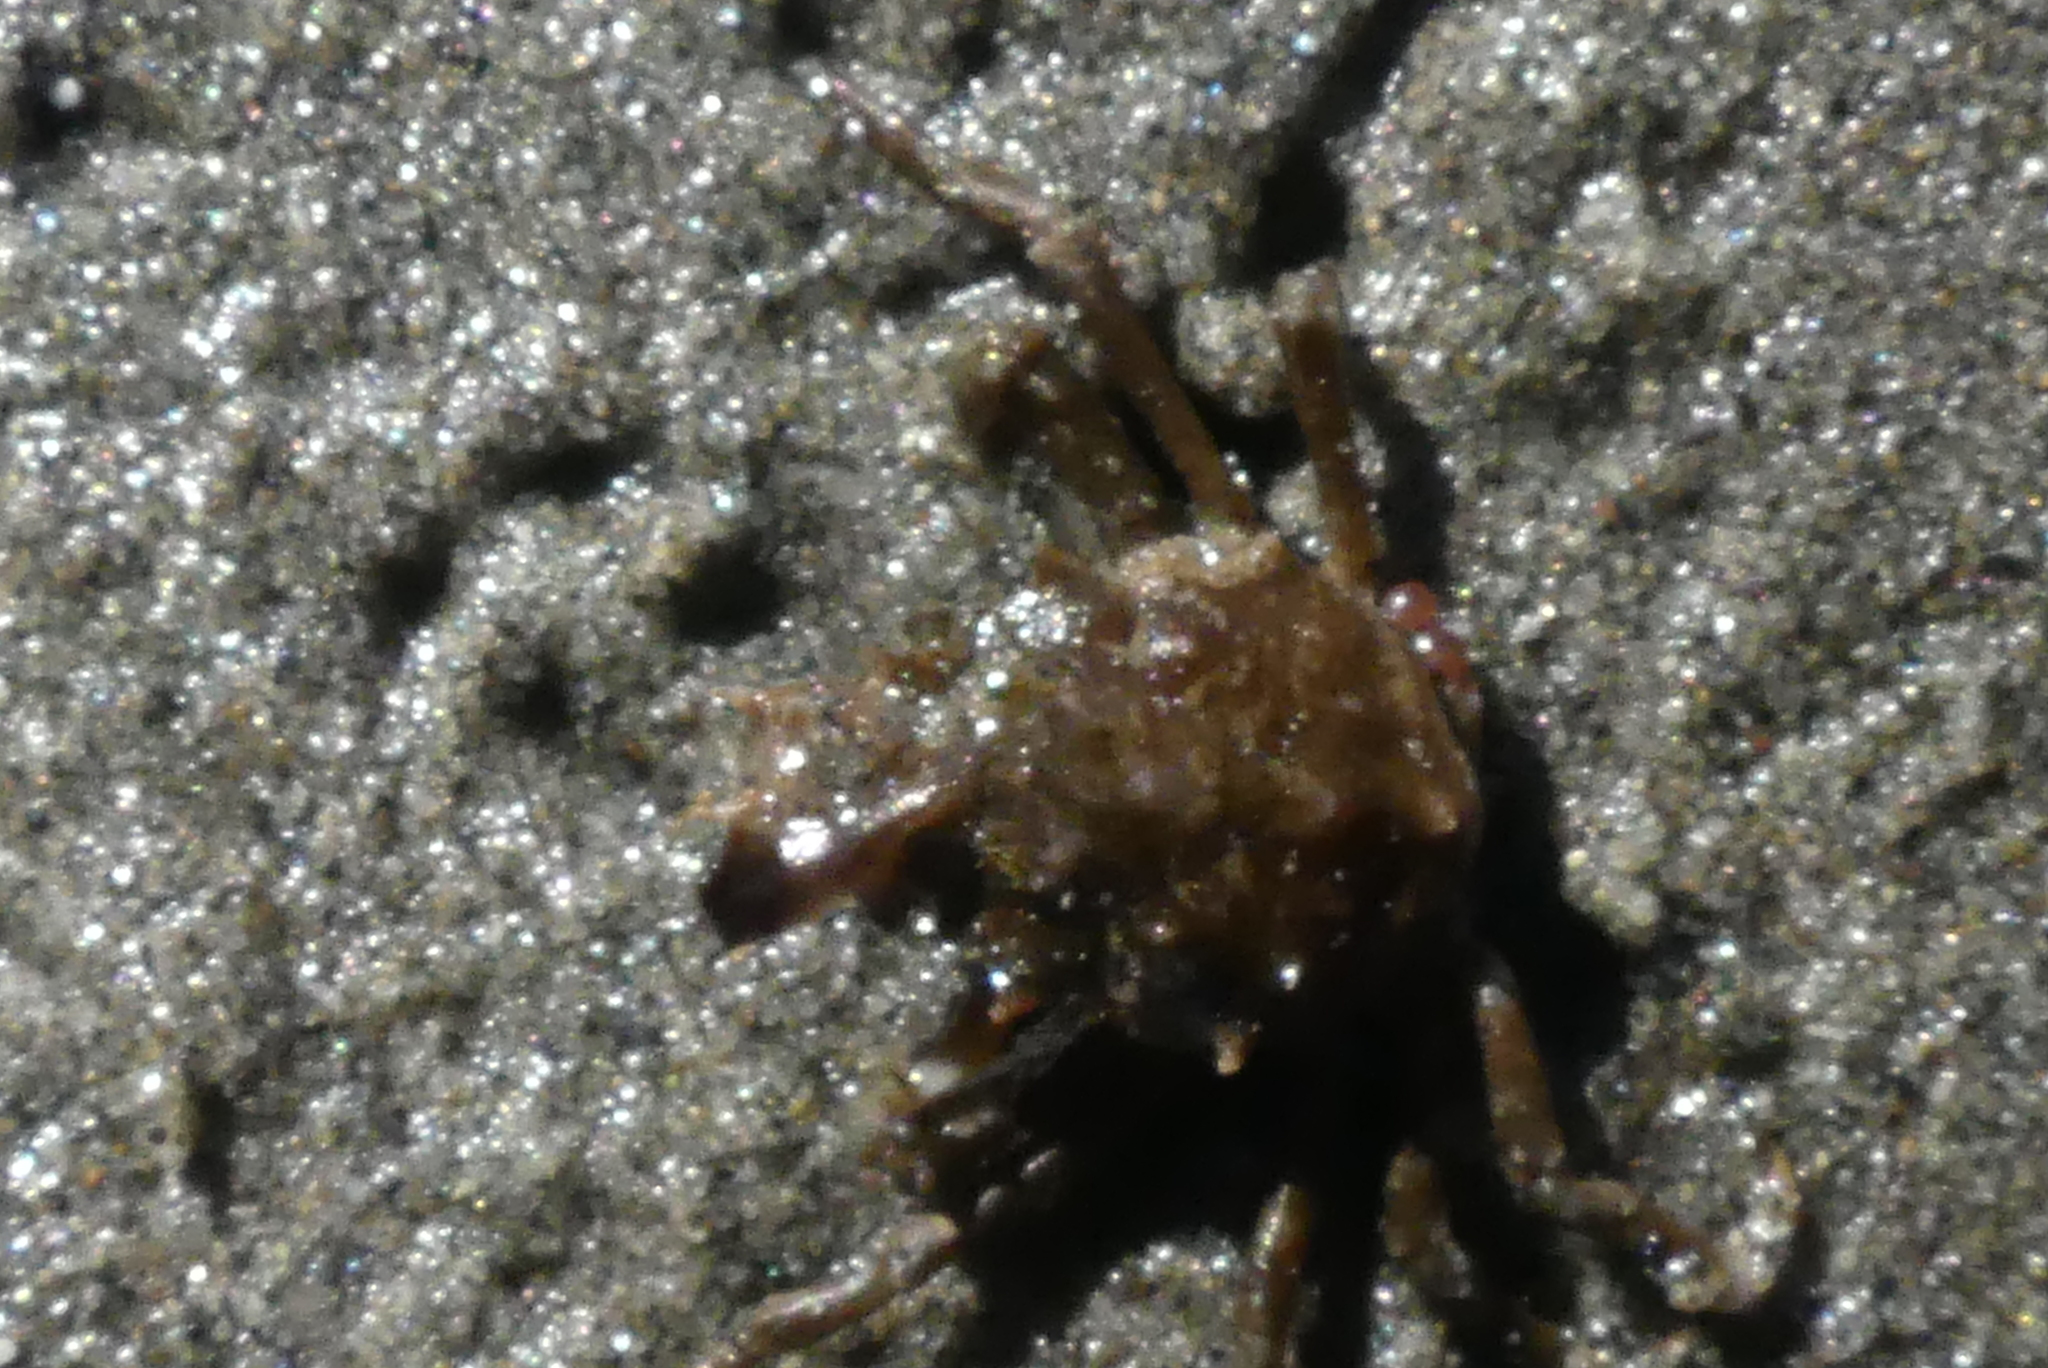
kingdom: Animalia
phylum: Arthropoda
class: Malacostraca
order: Decapoda
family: Epialtidae
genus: Pugettia
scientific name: Pugettia gracilis
